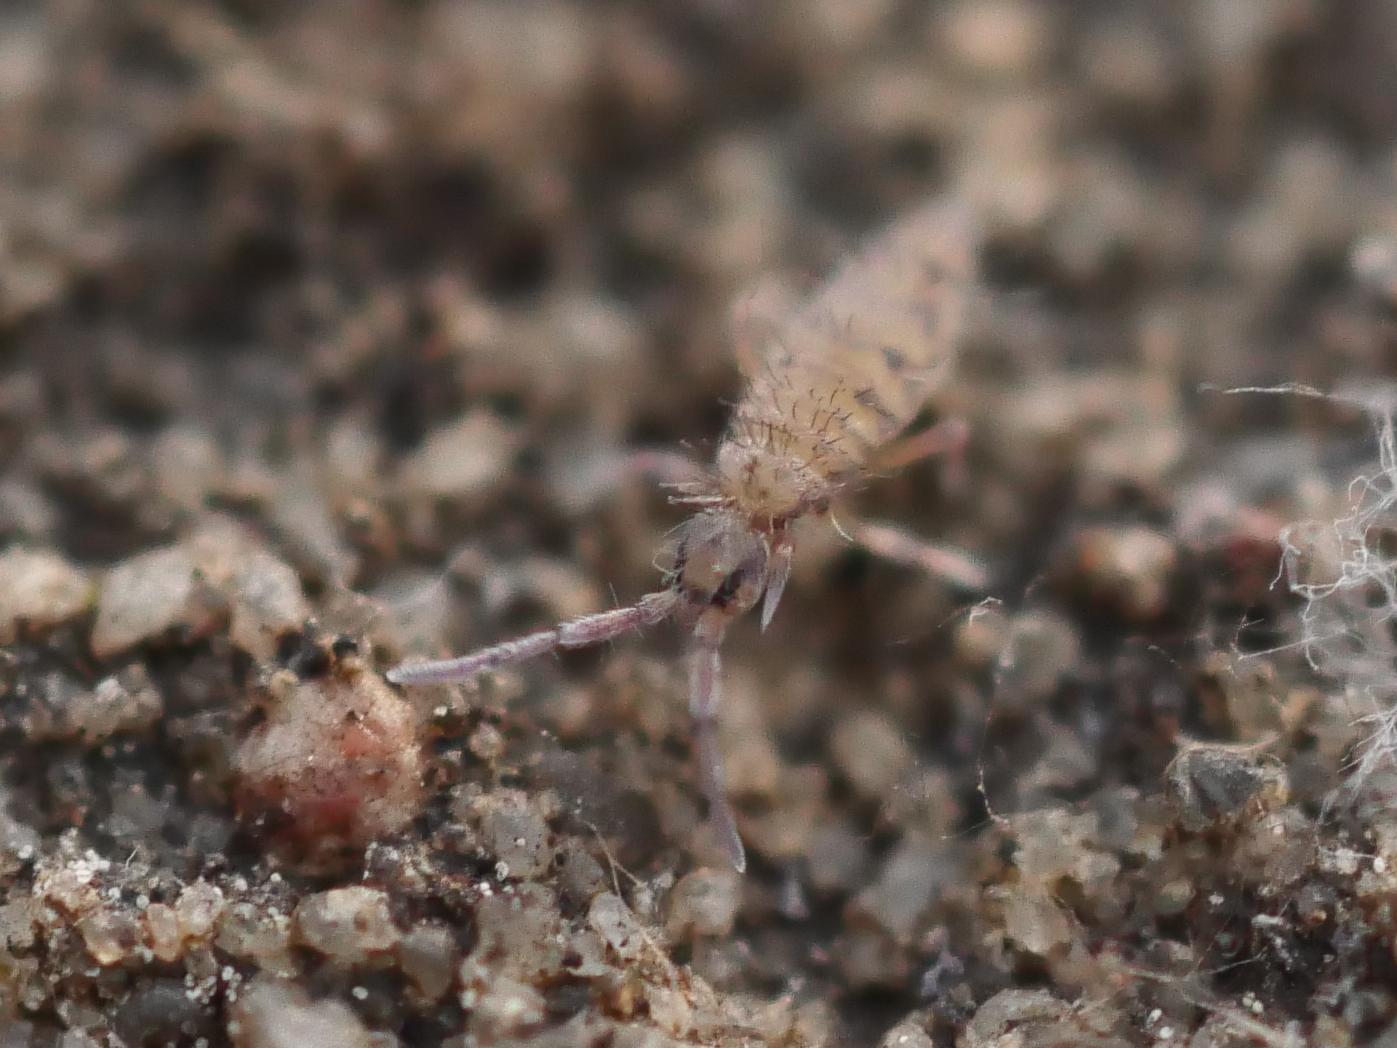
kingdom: Animalia
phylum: Arthropoda
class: Collembola
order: Entomobryomorpha
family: Entomobryidae
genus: Entomobrya
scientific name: Entomobrya multifasciata
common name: Springtail
